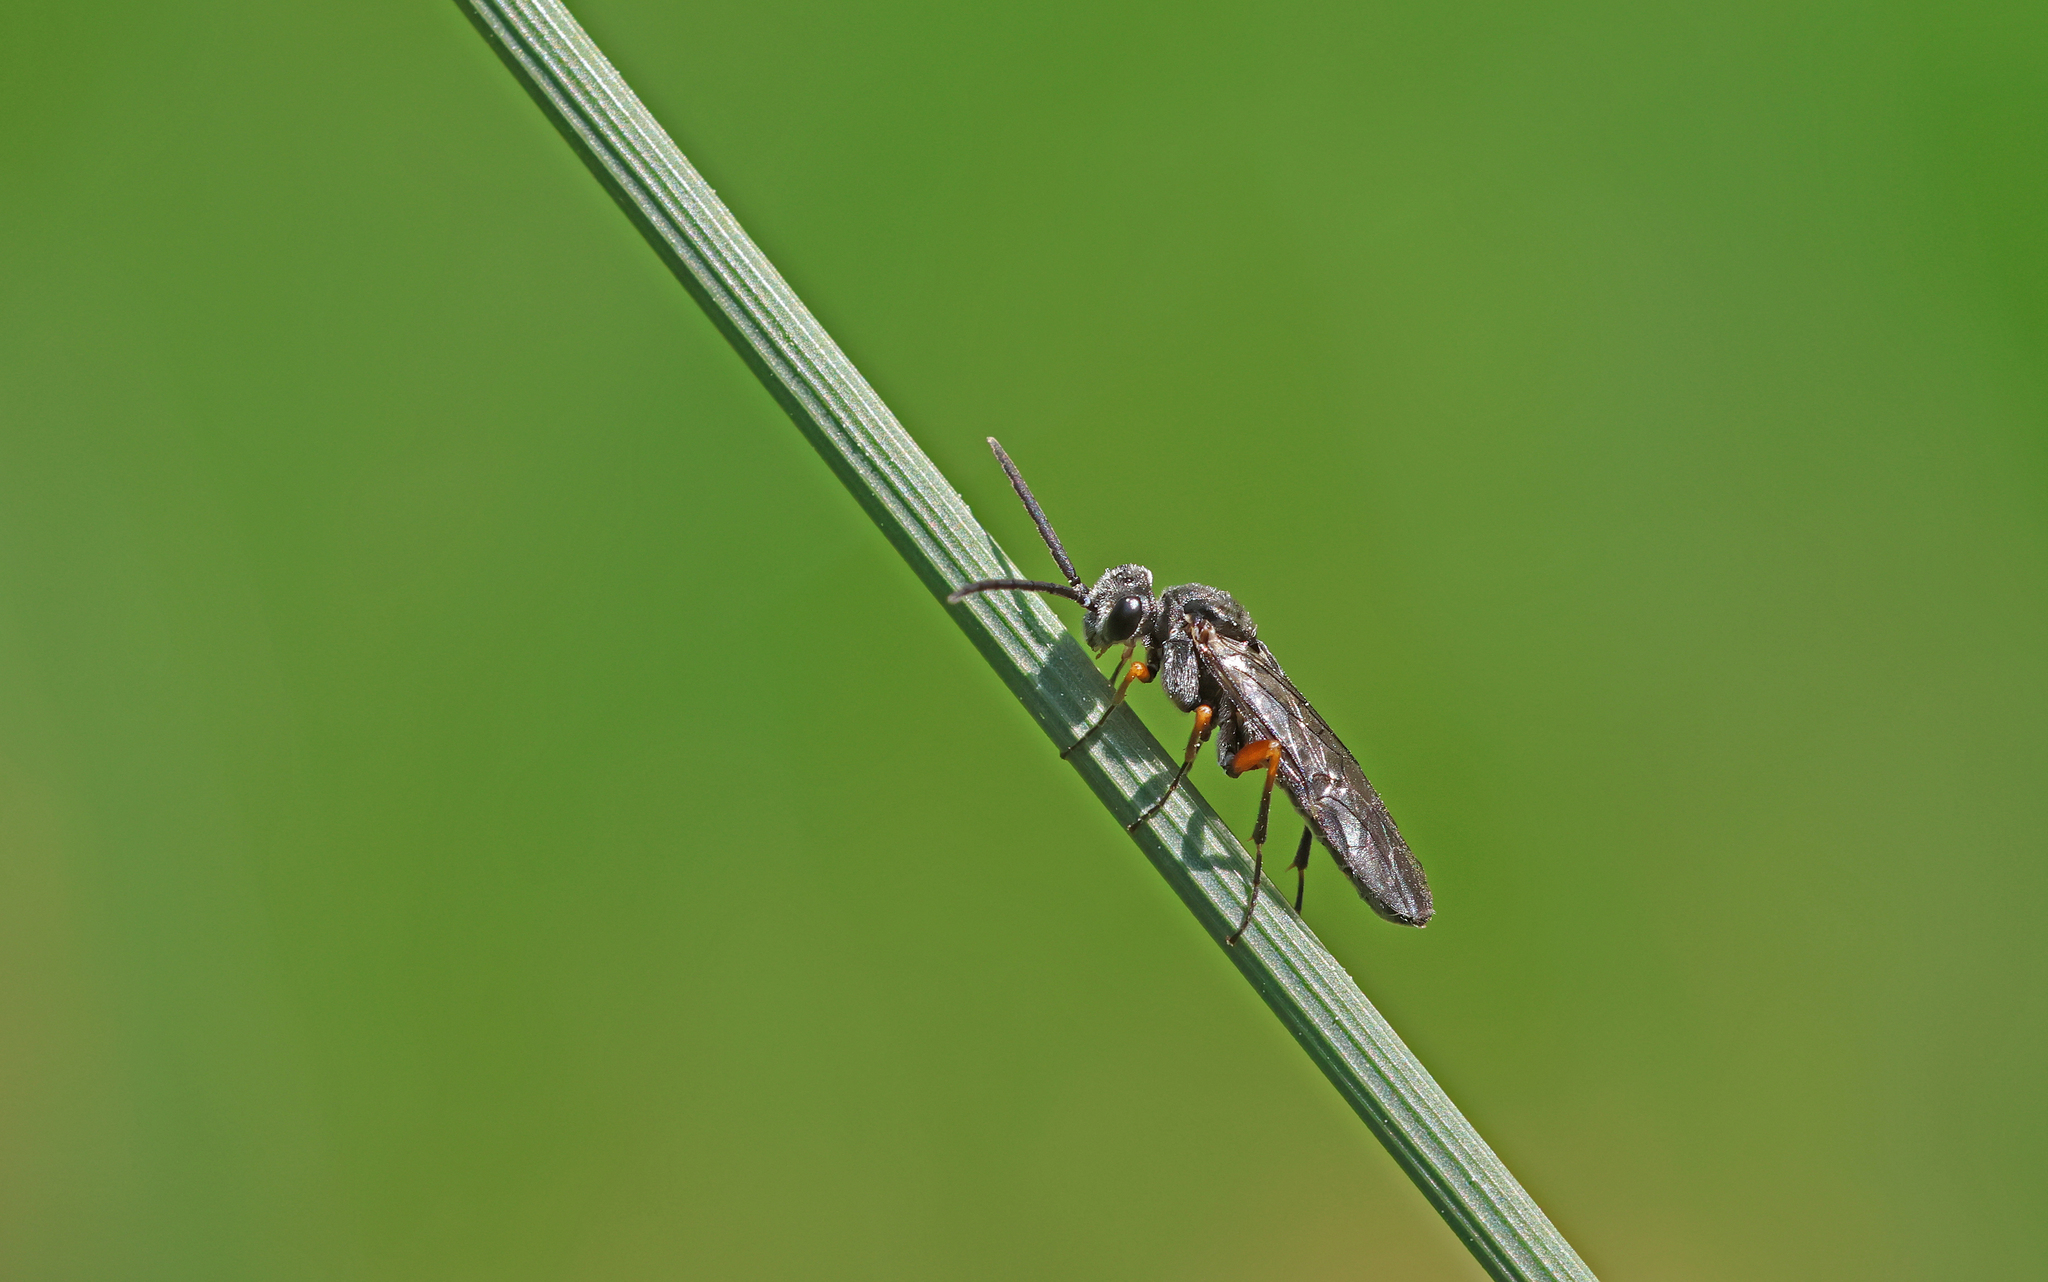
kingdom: Animalia
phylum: Arthropoda
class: Insecta
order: Hymenoptera
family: Tenthredinidae
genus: Dolerus
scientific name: Dolerus vestigialis
